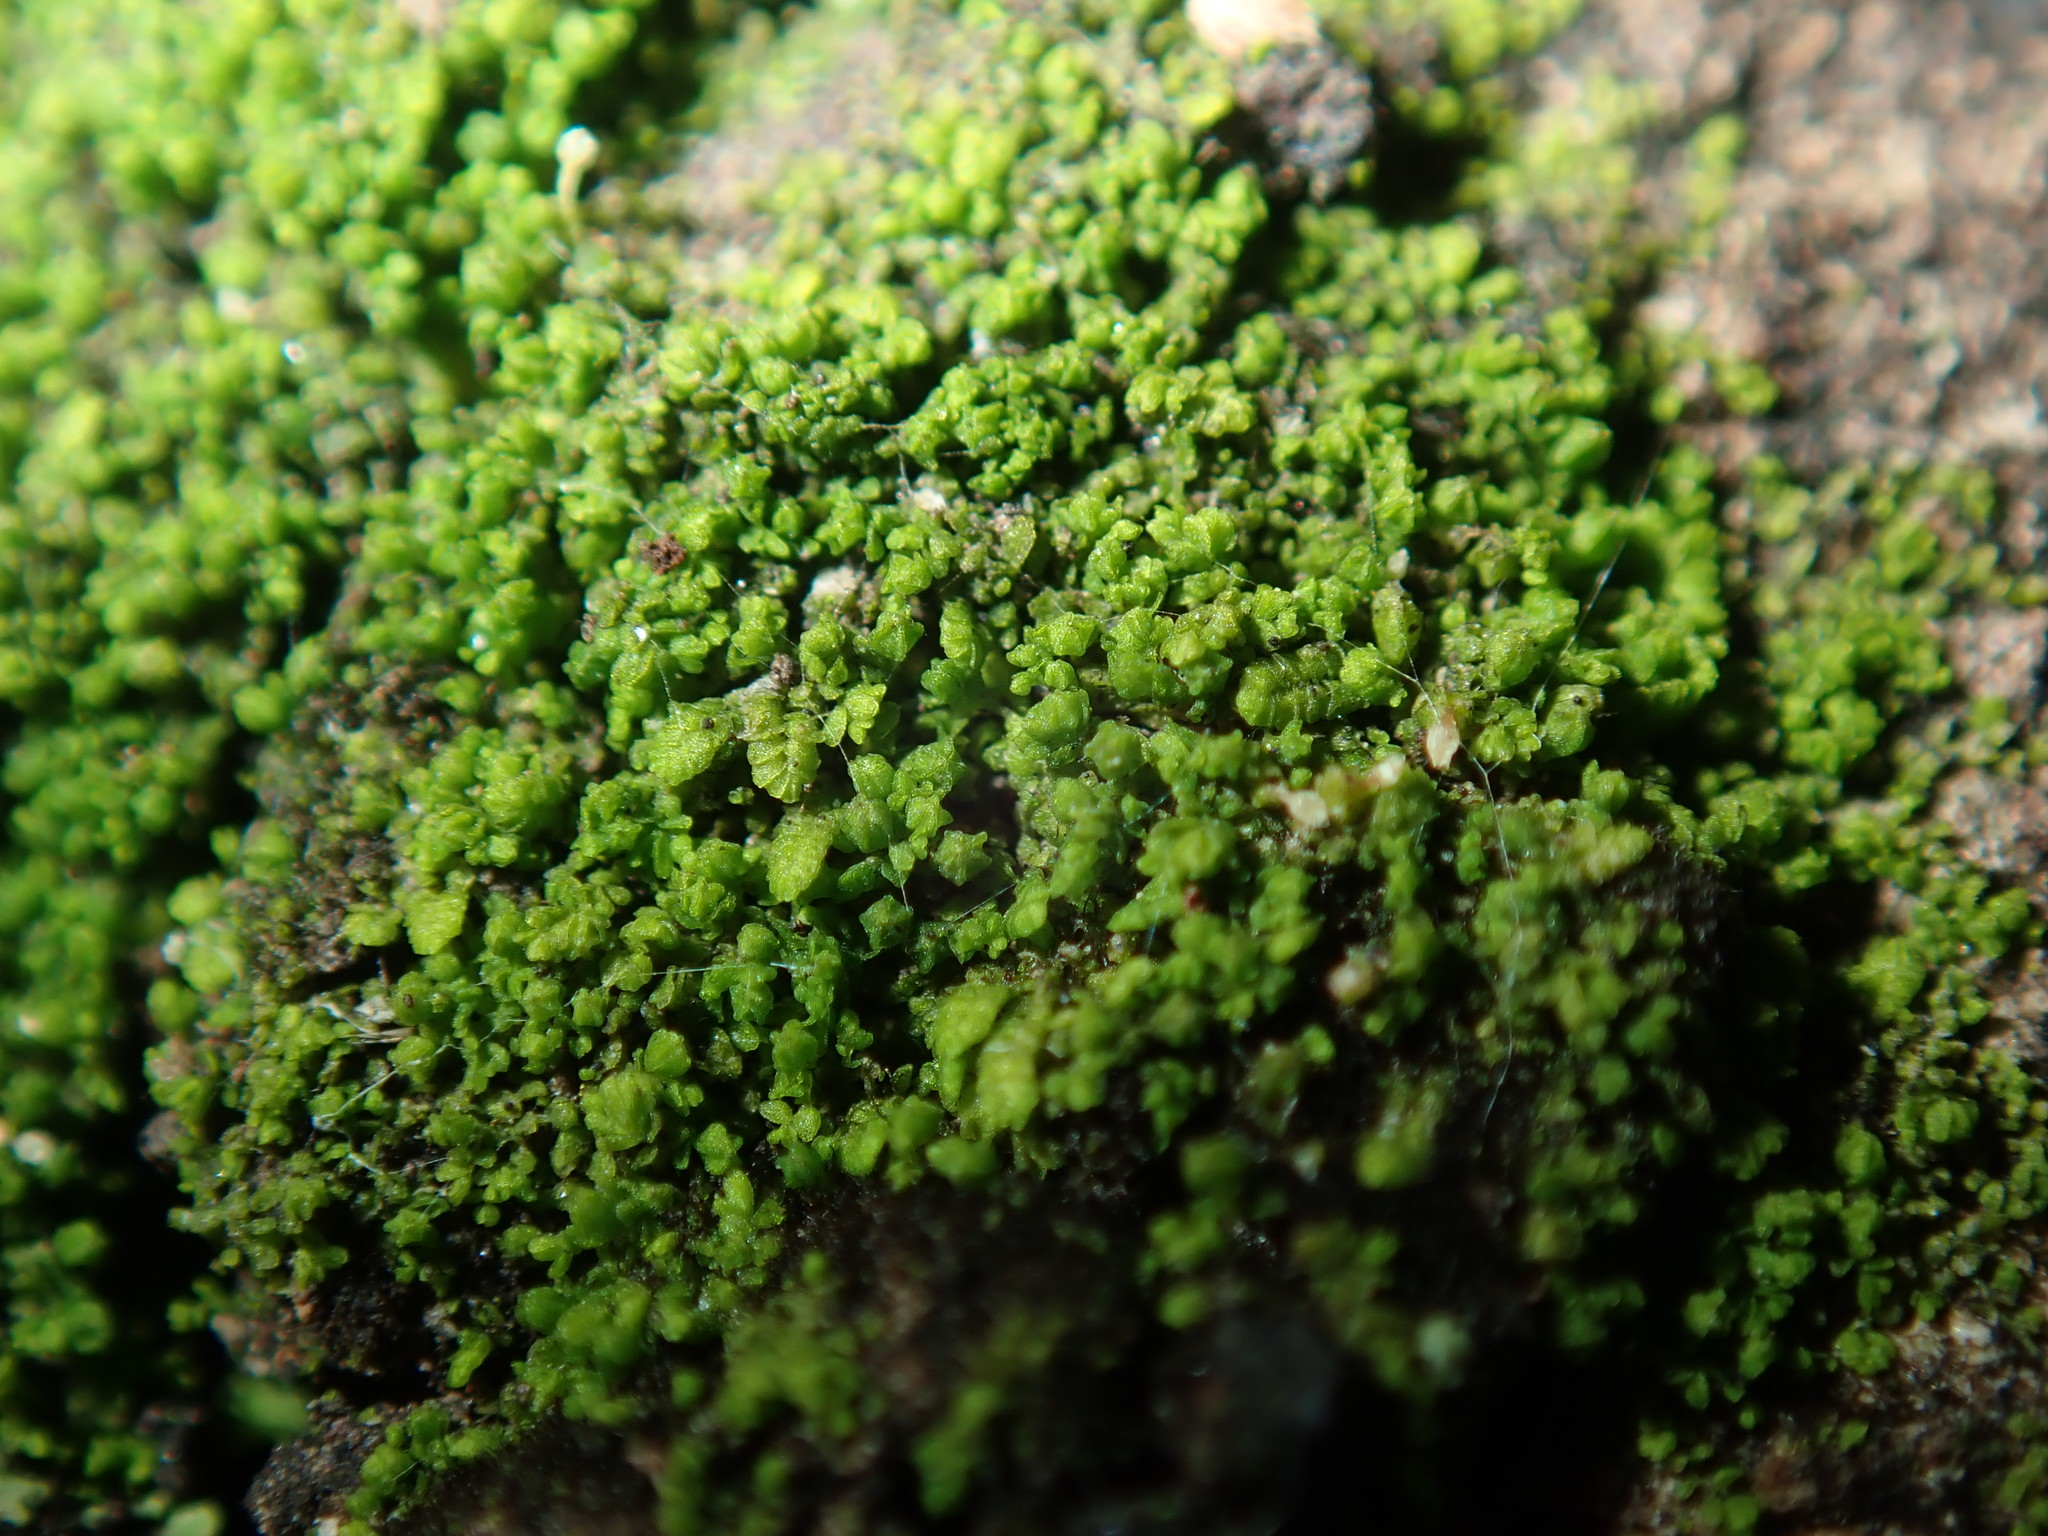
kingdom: Plantae
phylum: Marchantiophyta
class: Jungermanniopsida
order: Porellales
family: Lejeuneaceae
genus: Myriocoleopsis
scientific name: Myriocoleopsis minutissima
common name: Minute pouncewort
